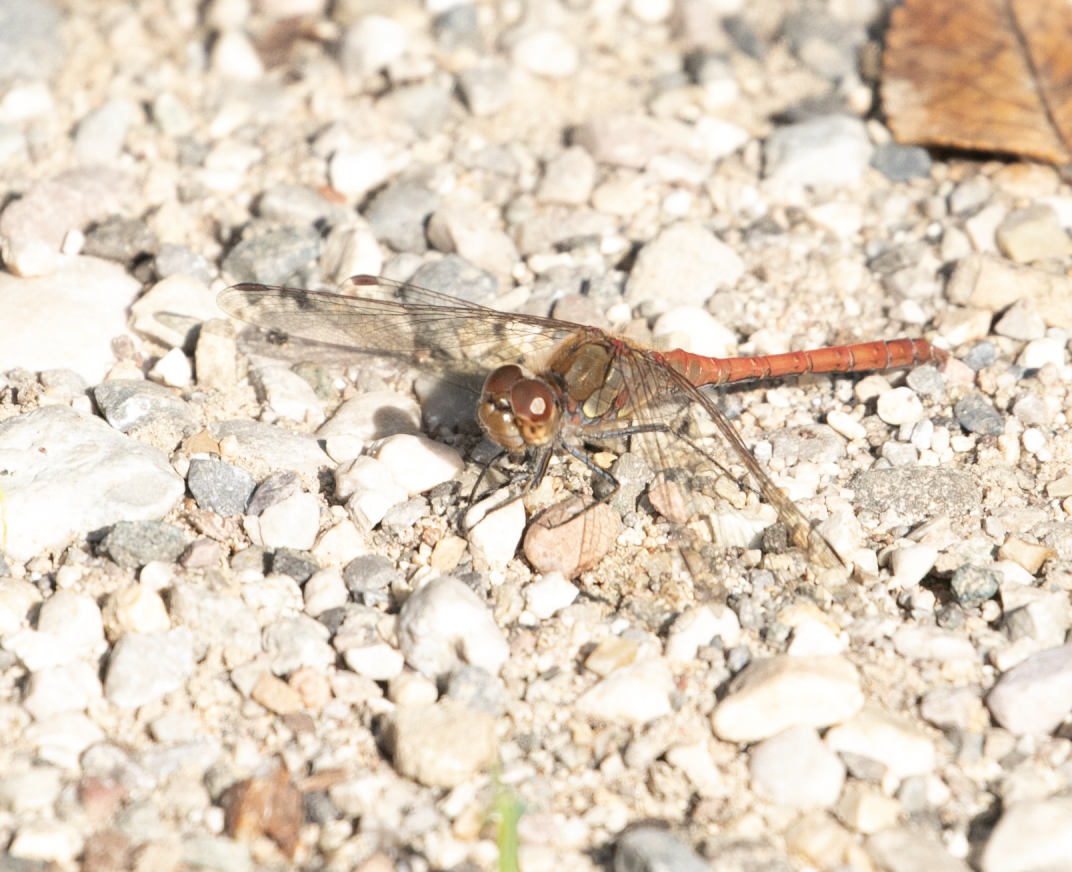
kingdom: Animalia
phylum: Arthropoda
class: Insecta
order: Odonata
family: Libellulidae
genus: Sympetrum
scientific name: Sympetrum striolatum
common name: Common darter
